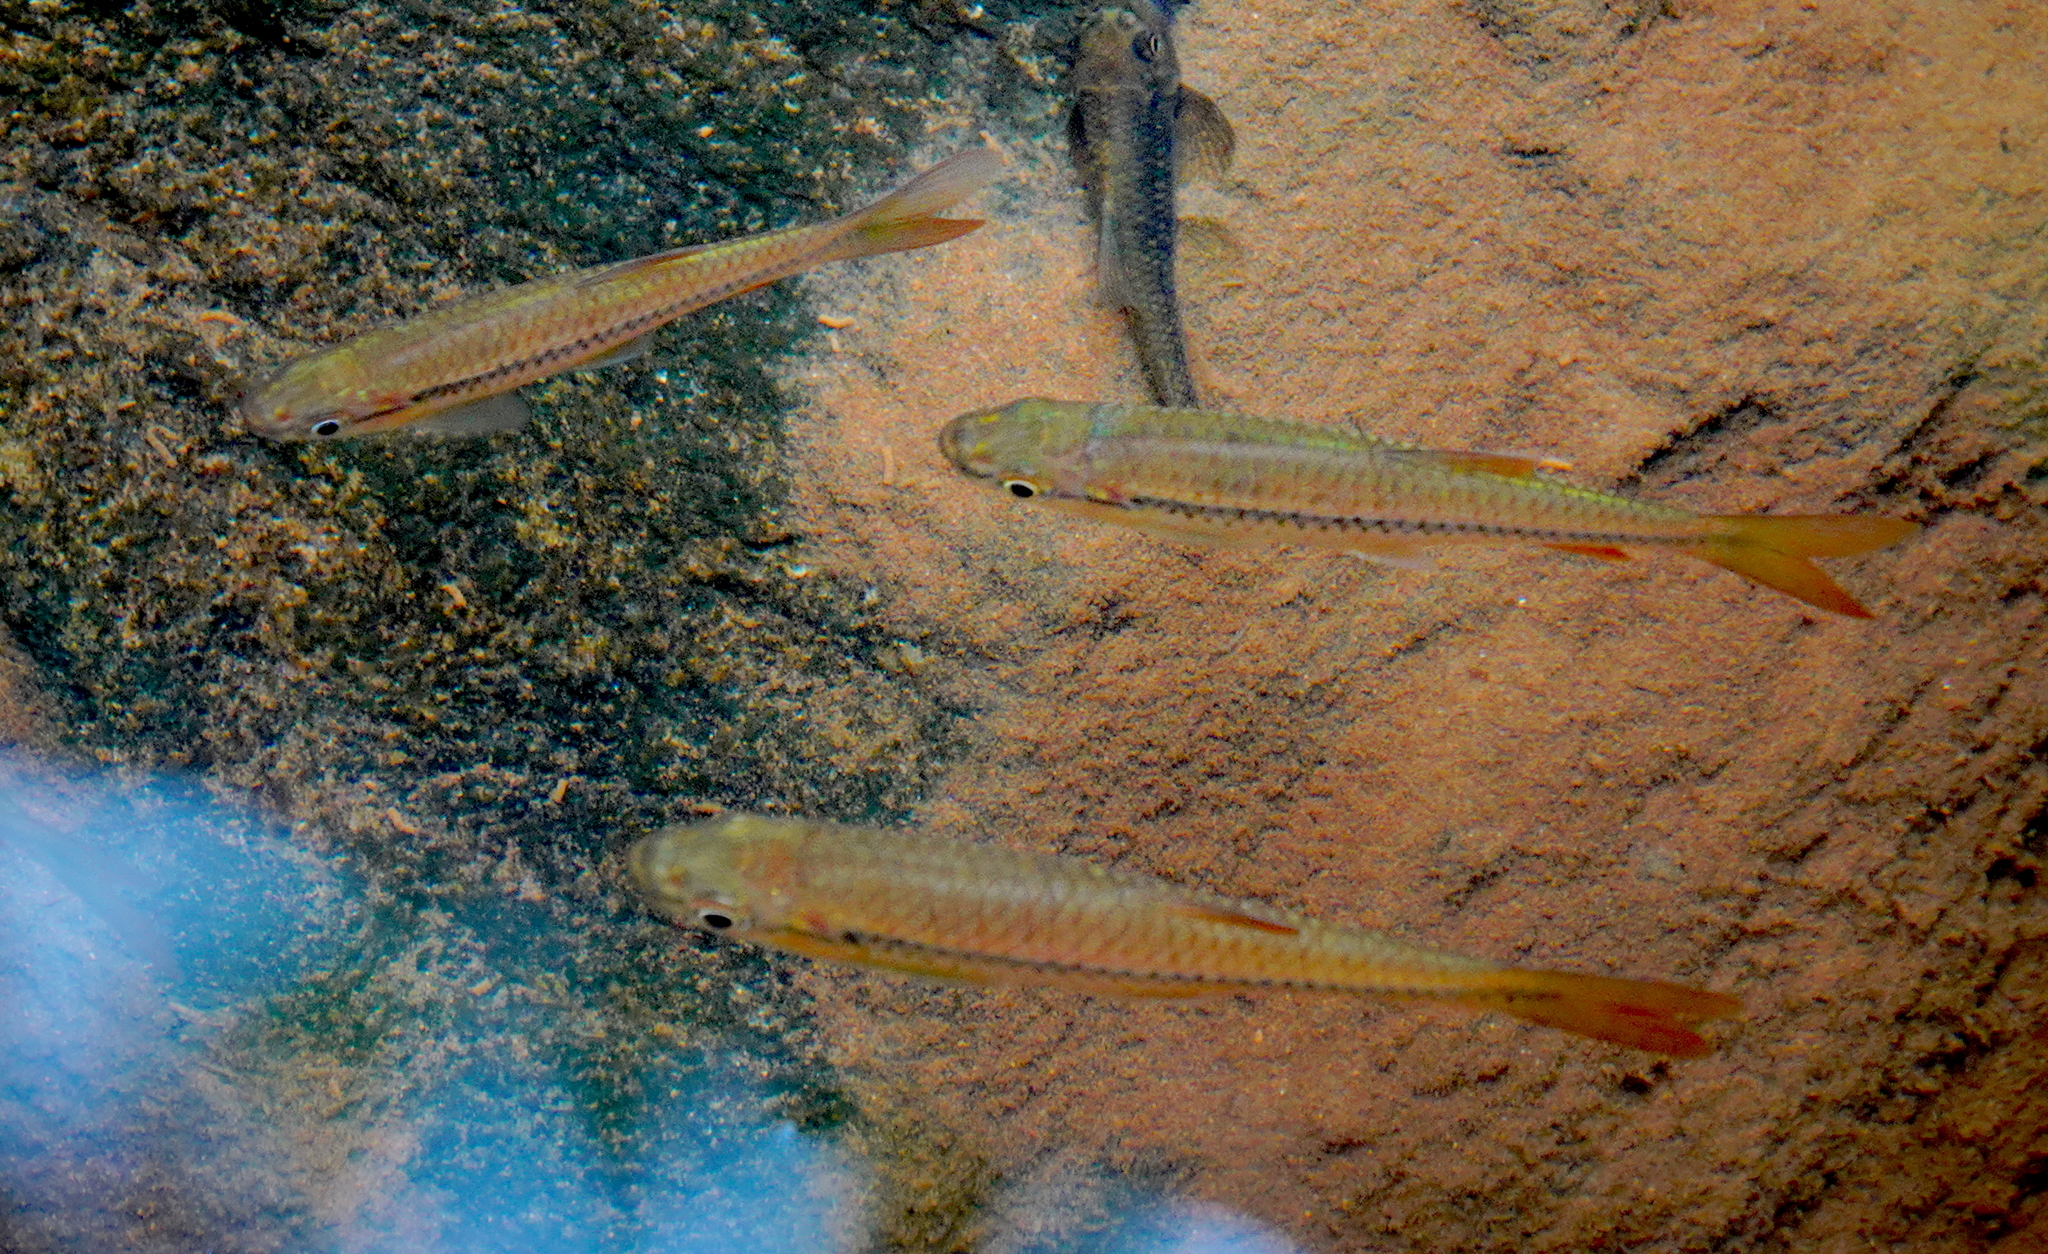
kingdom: Animalia
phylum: Chordata
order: Cypriniformes
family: Cyprinidae
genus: Rasbora
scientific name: Rasbora dandia
